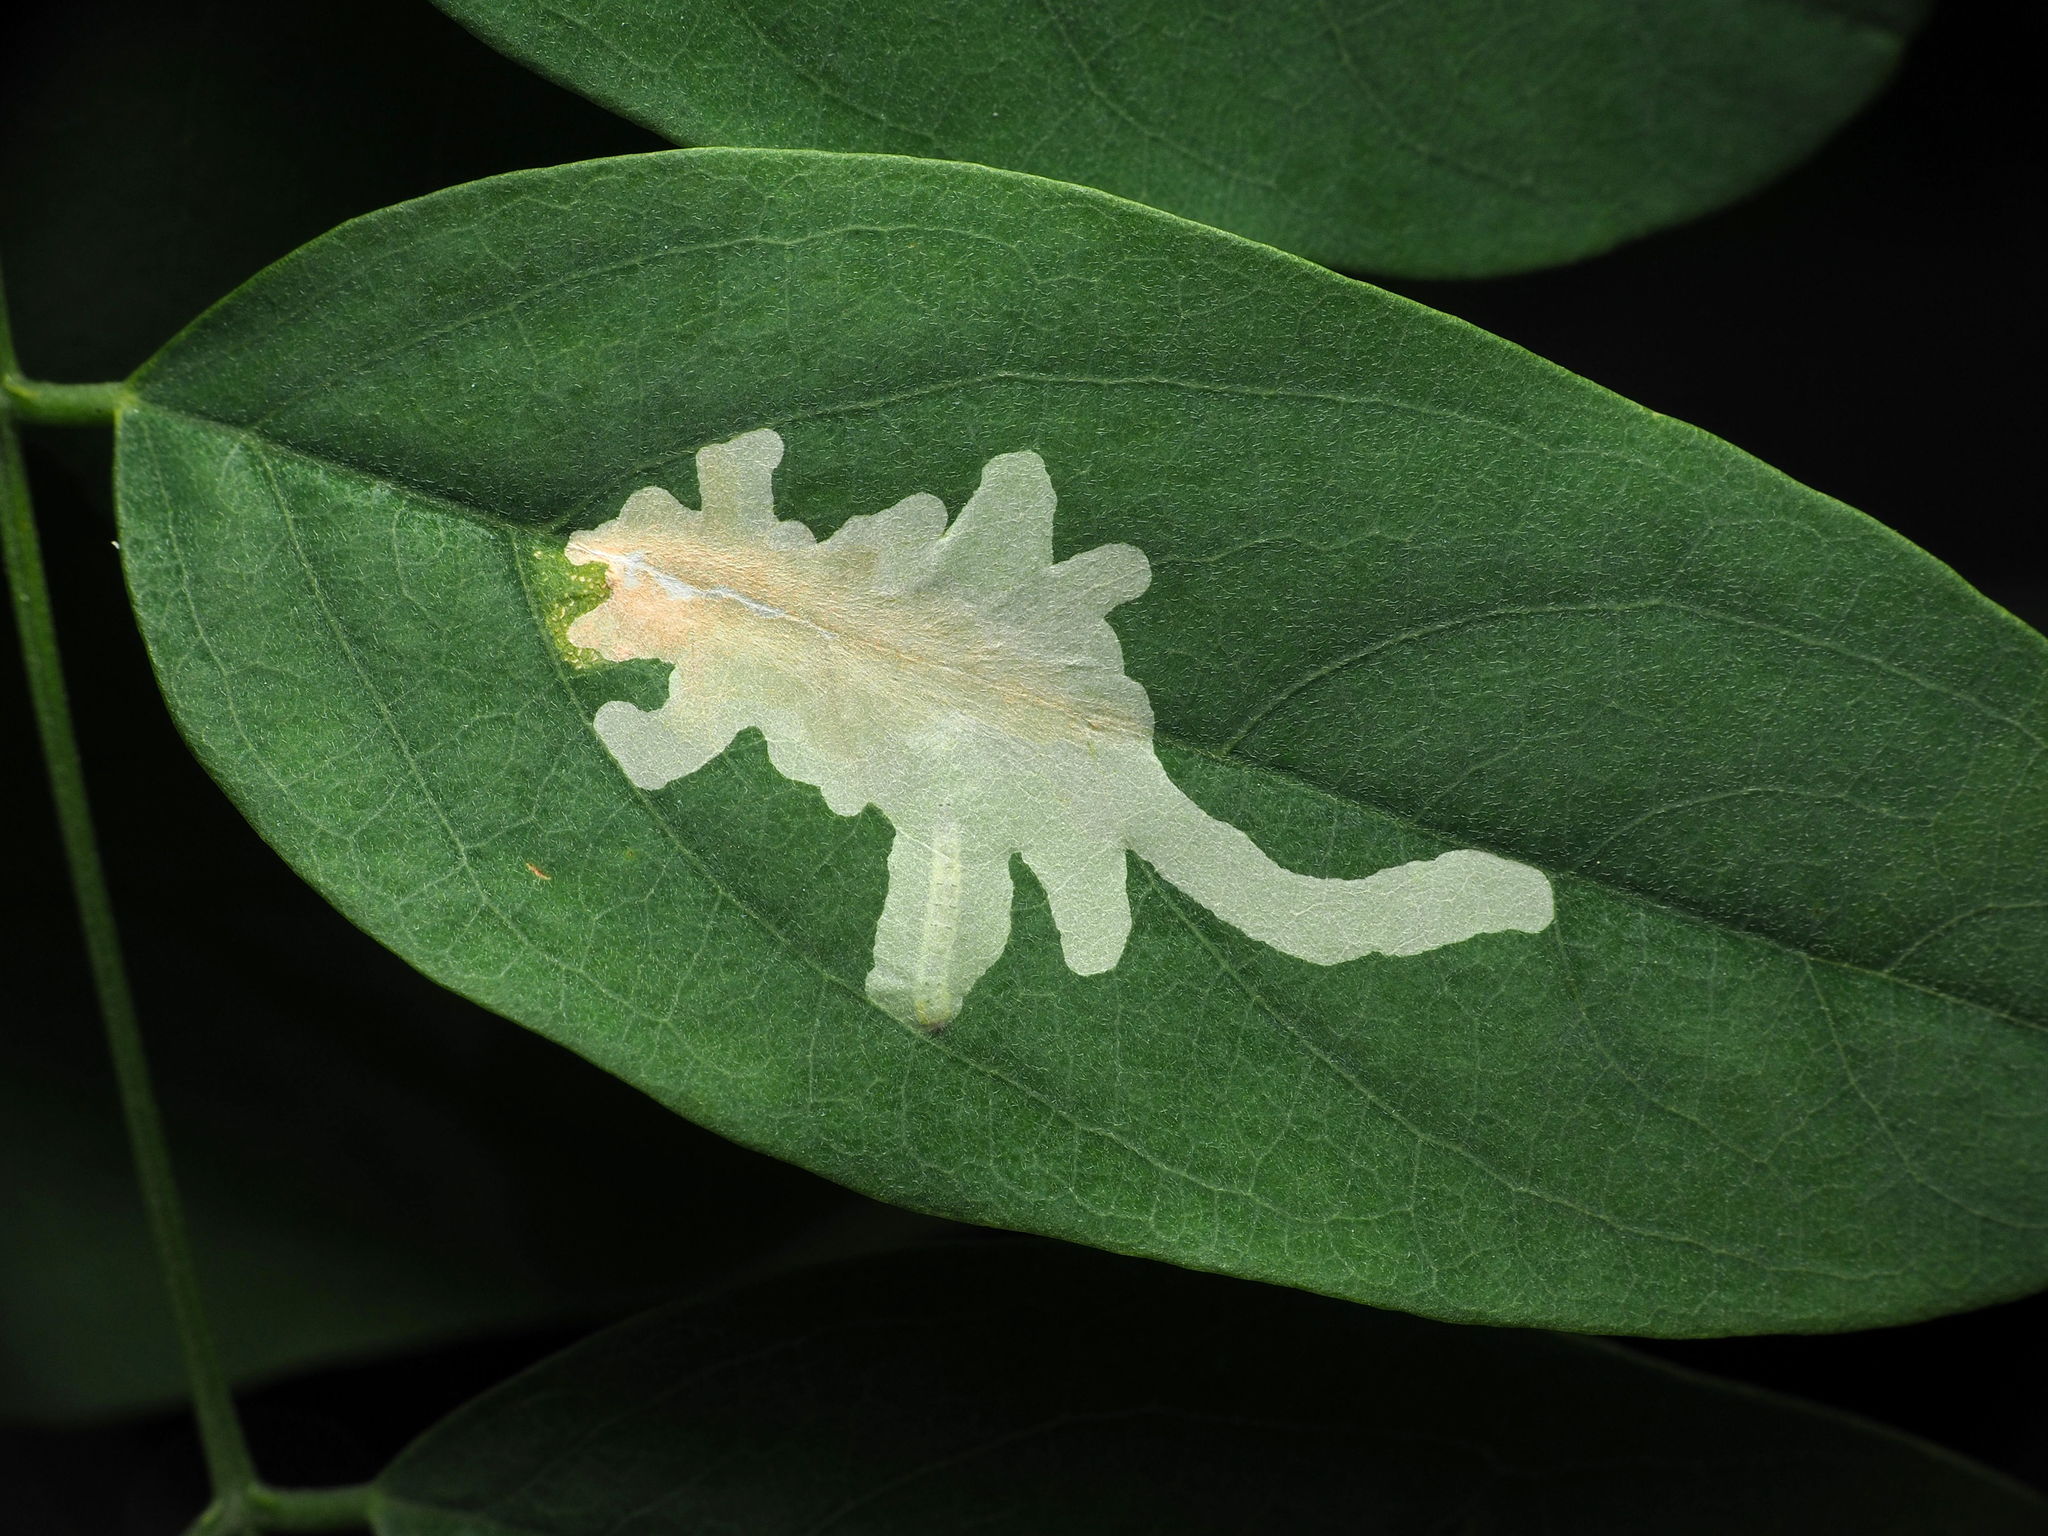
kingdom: Animalia
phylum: Arthropoda
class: Insecta
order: Lepidoptera
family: Gracillariidae
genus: Parectopa
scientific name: Parectopa robiniella
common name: Locust digitate leafminer
